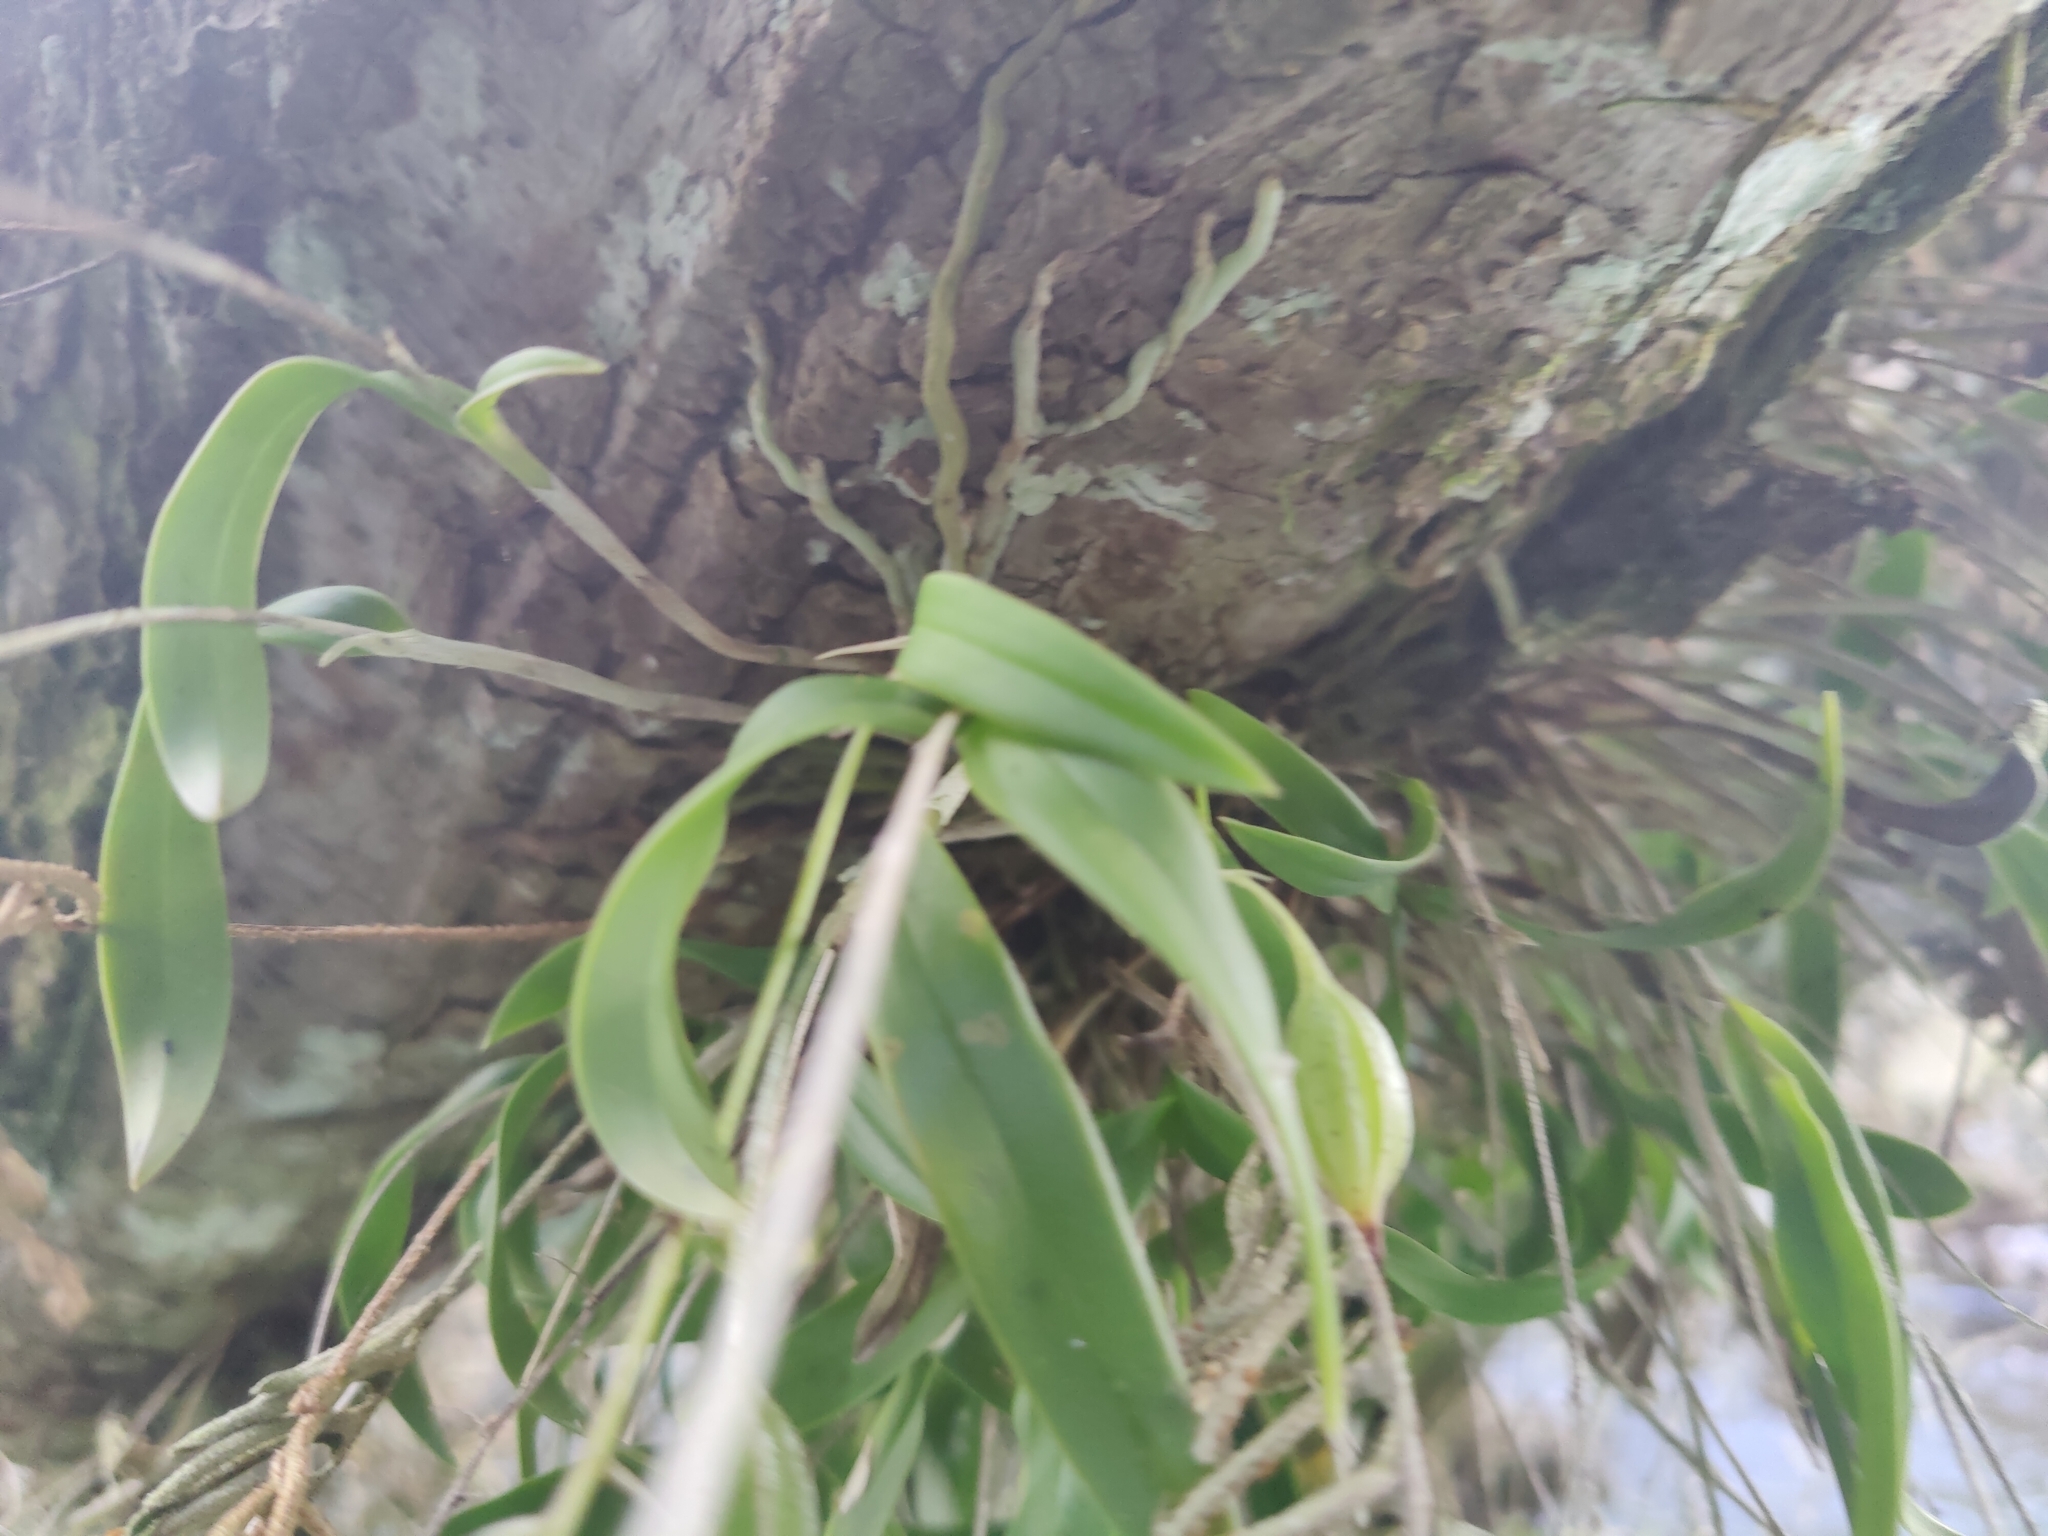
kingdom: Plantae
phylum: Tracheophyta
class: Liliopsida
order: Asparagales
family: Orchidaceae
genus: Epidendrum
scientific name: Epidendrum conopseum
